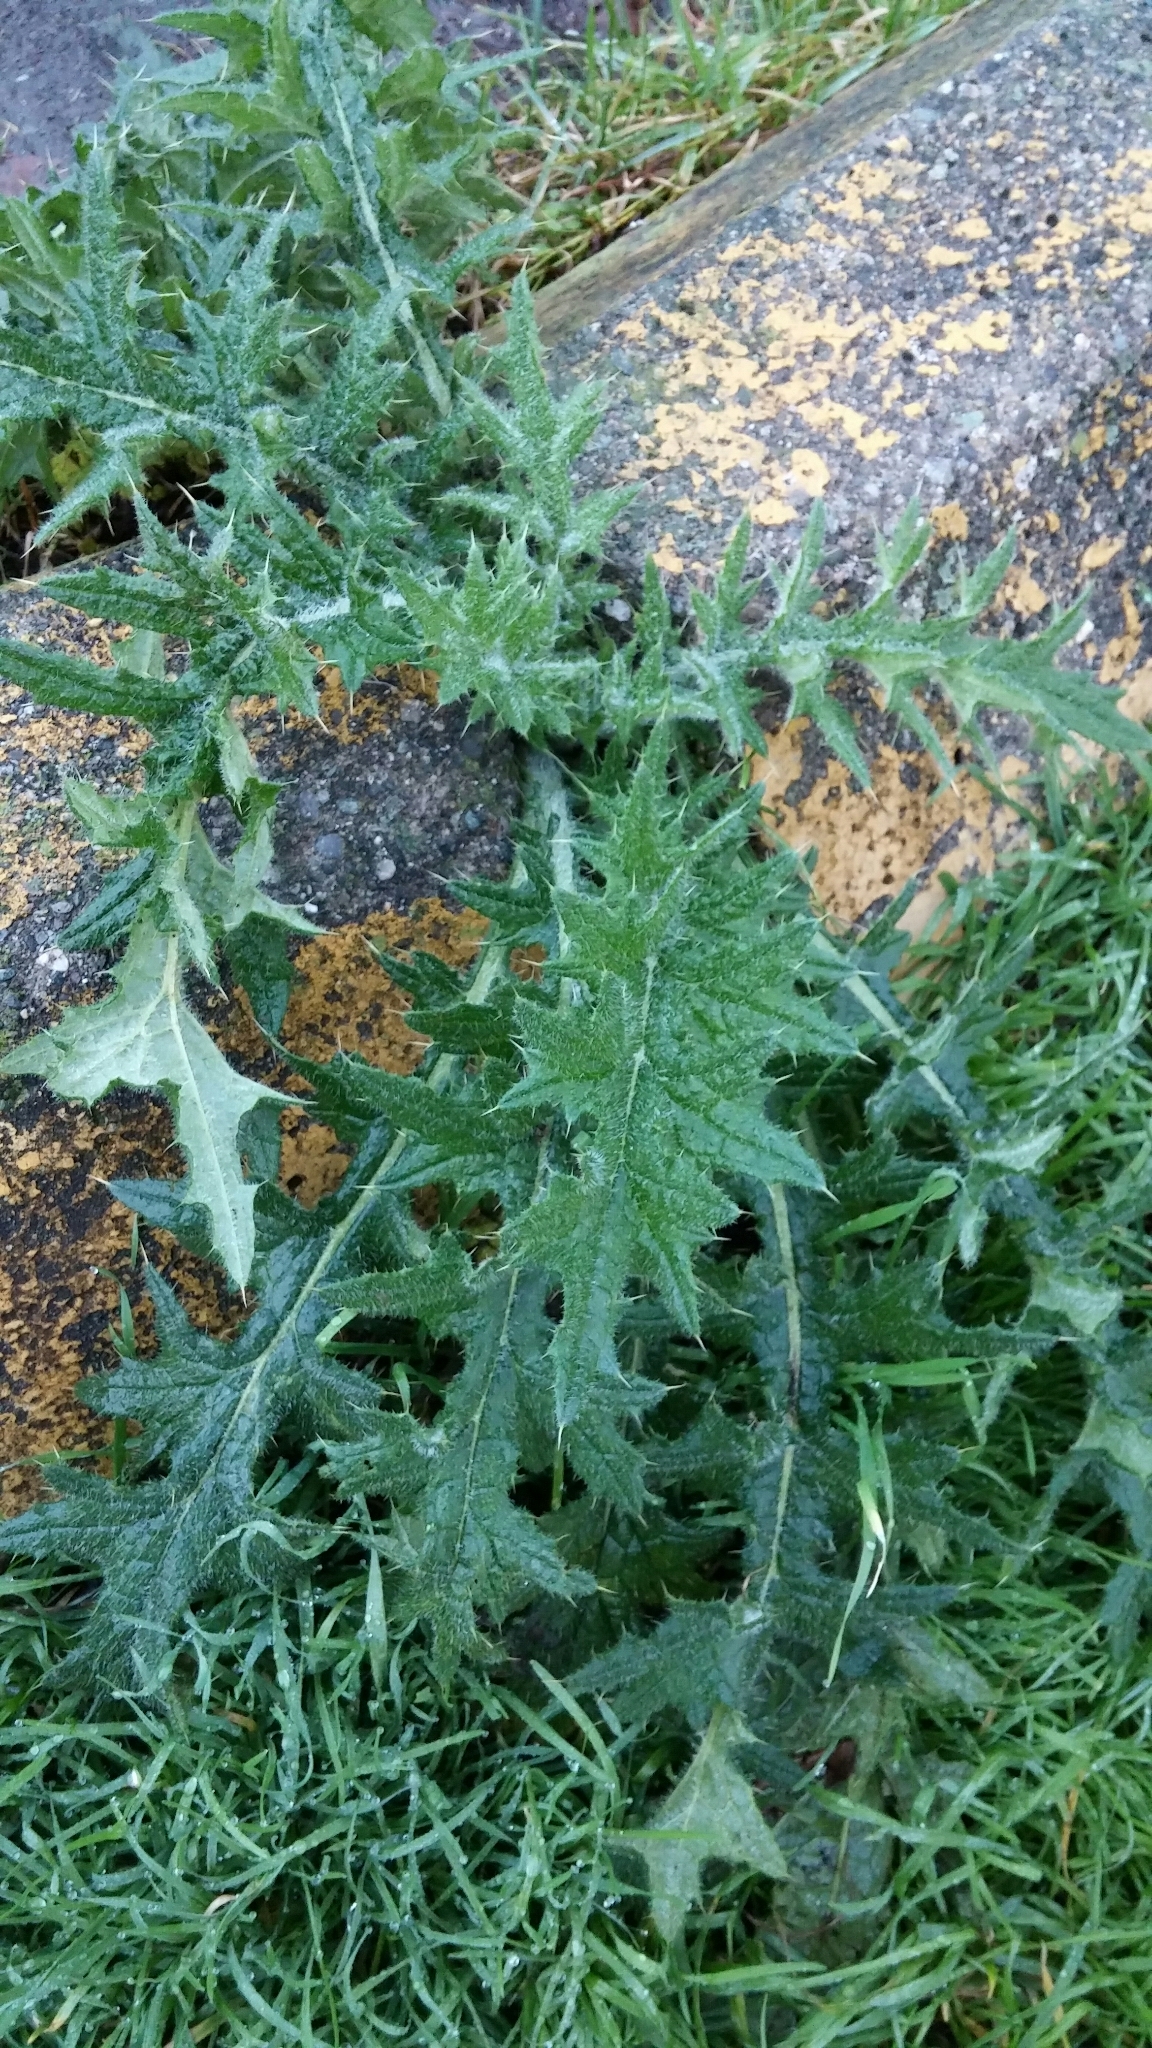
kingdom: Plantae
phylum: Tracheophyta
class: Magnoliopsida
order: Asterales
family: Asteraceae
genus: Cirsium
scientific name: Cirsium vulgare
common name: Bull thistle
